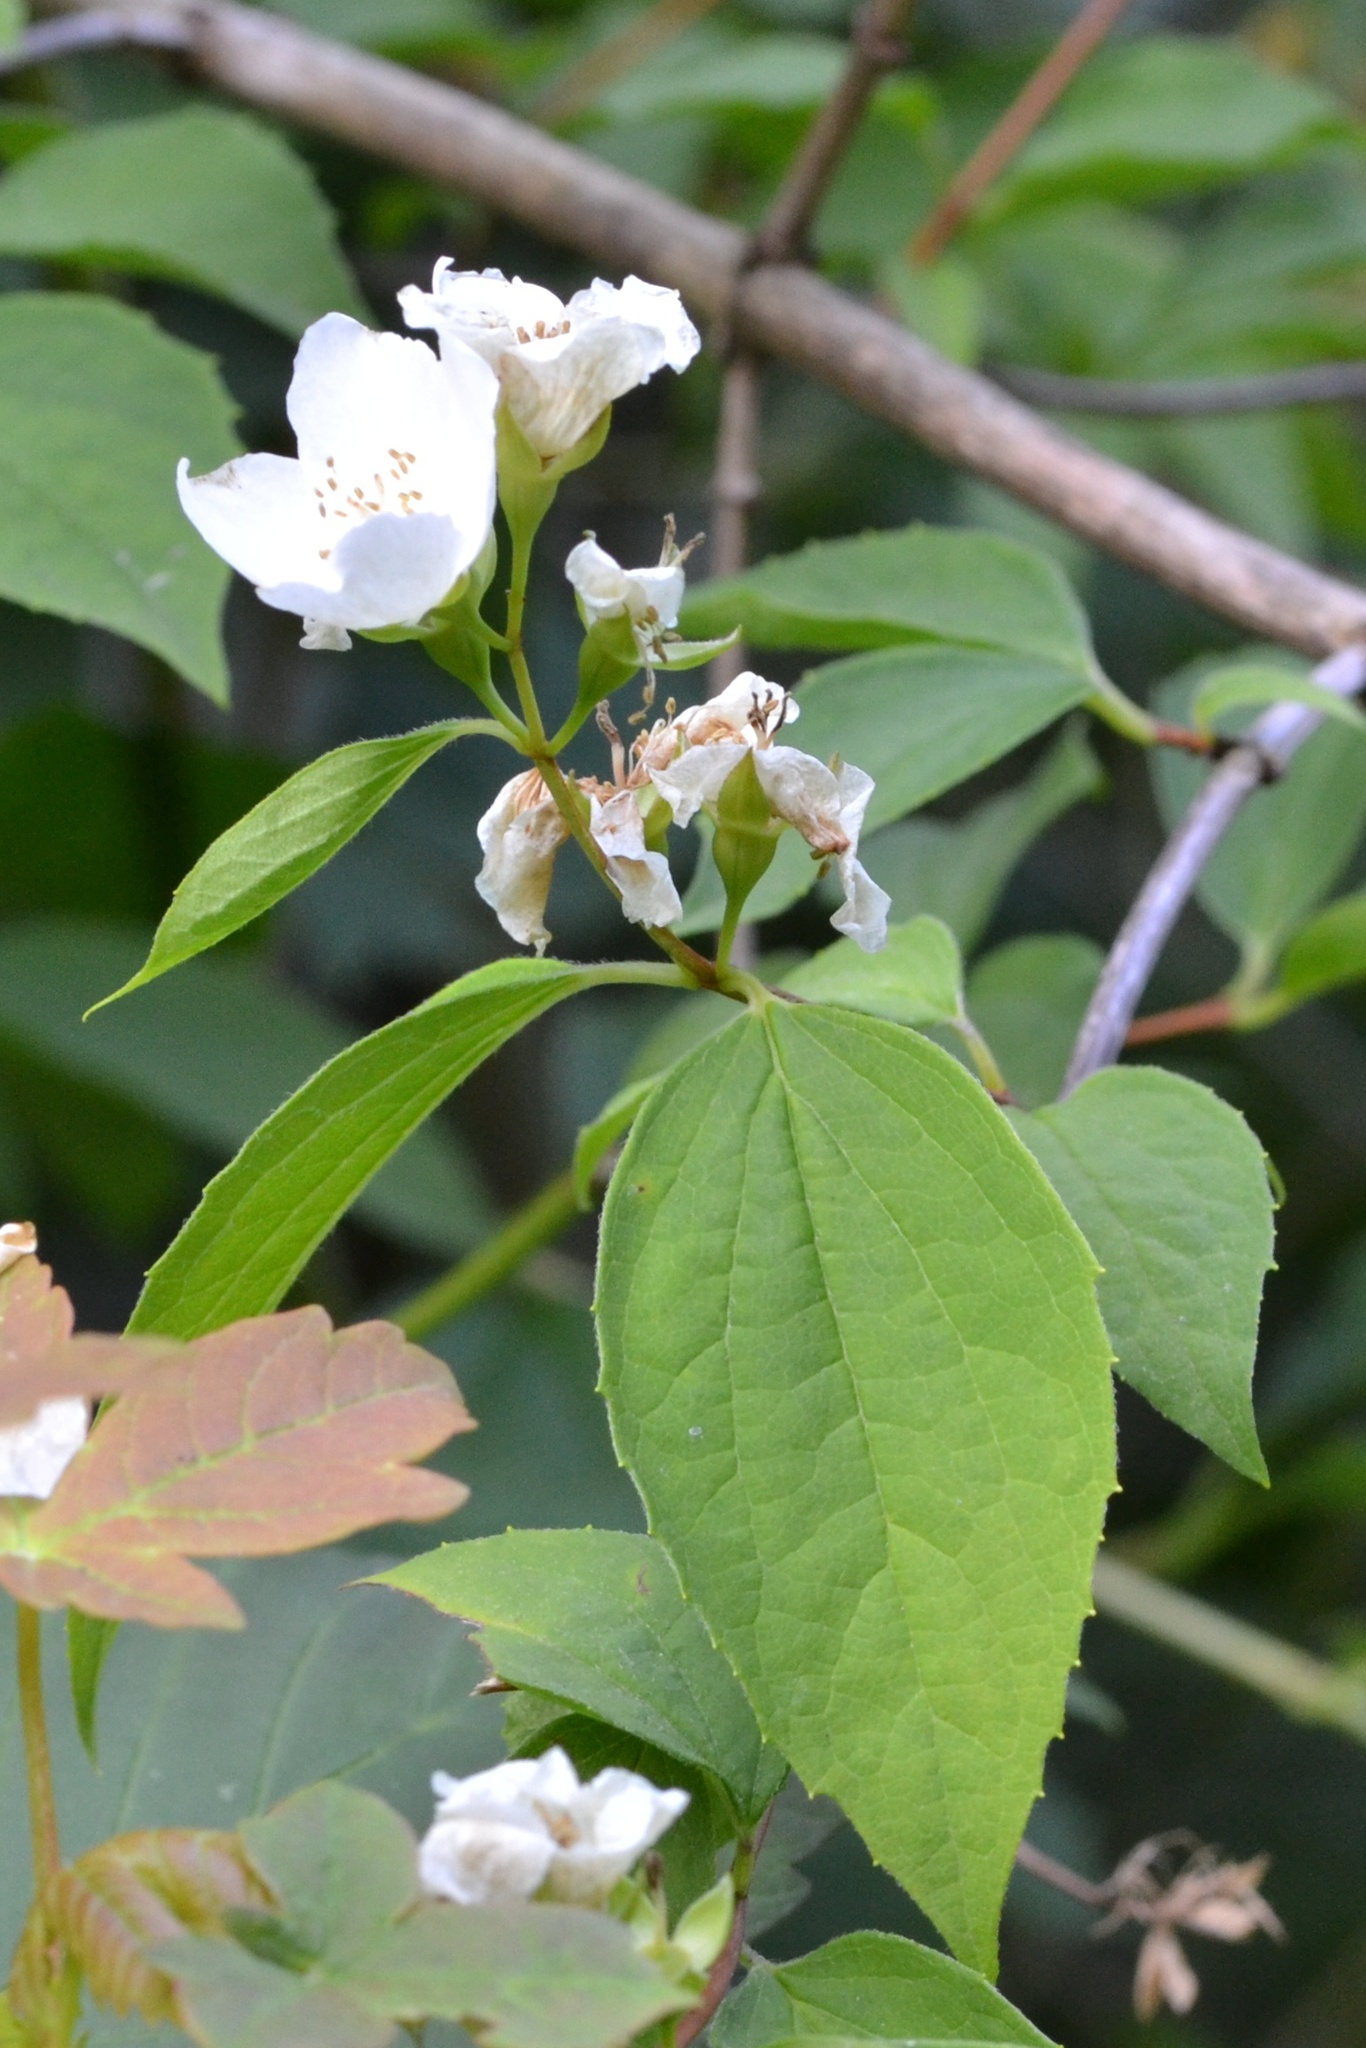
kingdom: Plantae
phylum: Tracheophyta
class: Magnoliopsida
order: Cornales
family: Hydrangeaceae
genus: Philadelphus
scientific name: Philadelphus coronarius
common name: Mock orange
